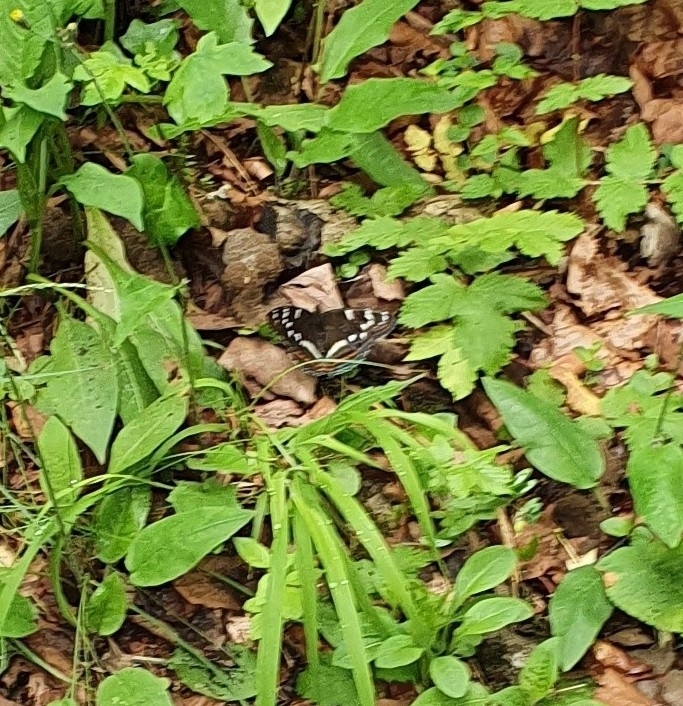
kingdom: Animalia
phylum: Arthropoda
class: Insecta
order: Lepidoptera
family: Nymphalidae
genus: Limenitis
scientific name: Limenitis populi
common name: Poplar admiral
